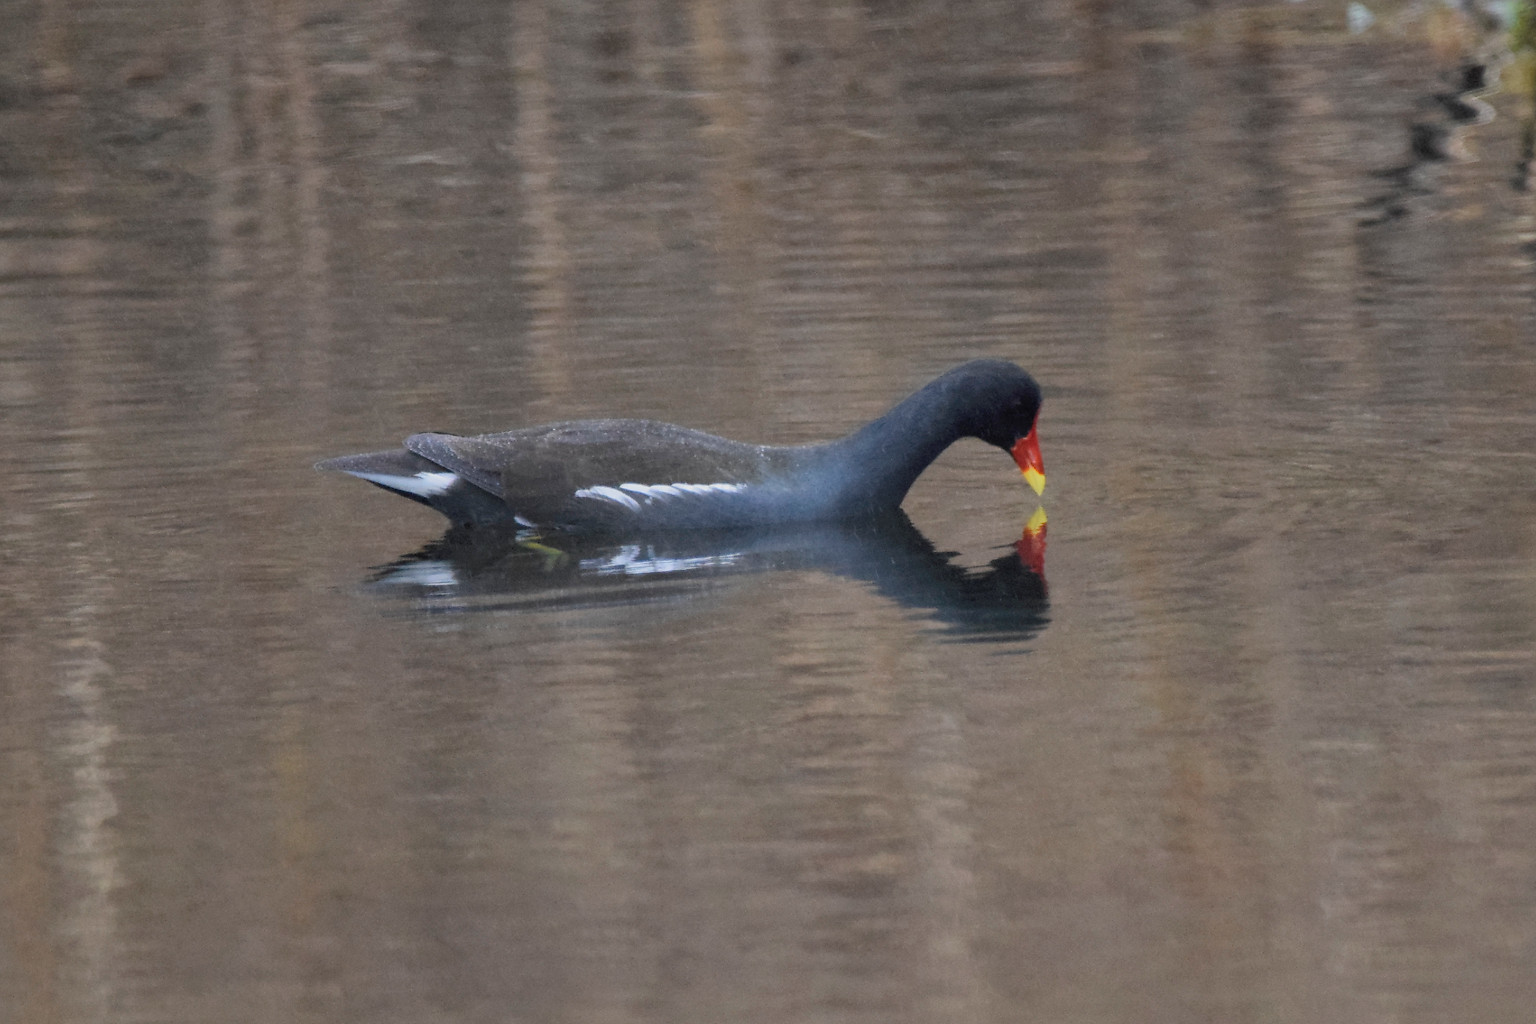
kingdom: Animalia
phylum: Chordata
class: Aves
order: Gruiformes
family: Rallidae
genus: Gallinula
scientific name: Gallinula chloropus
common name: Common moorhen
